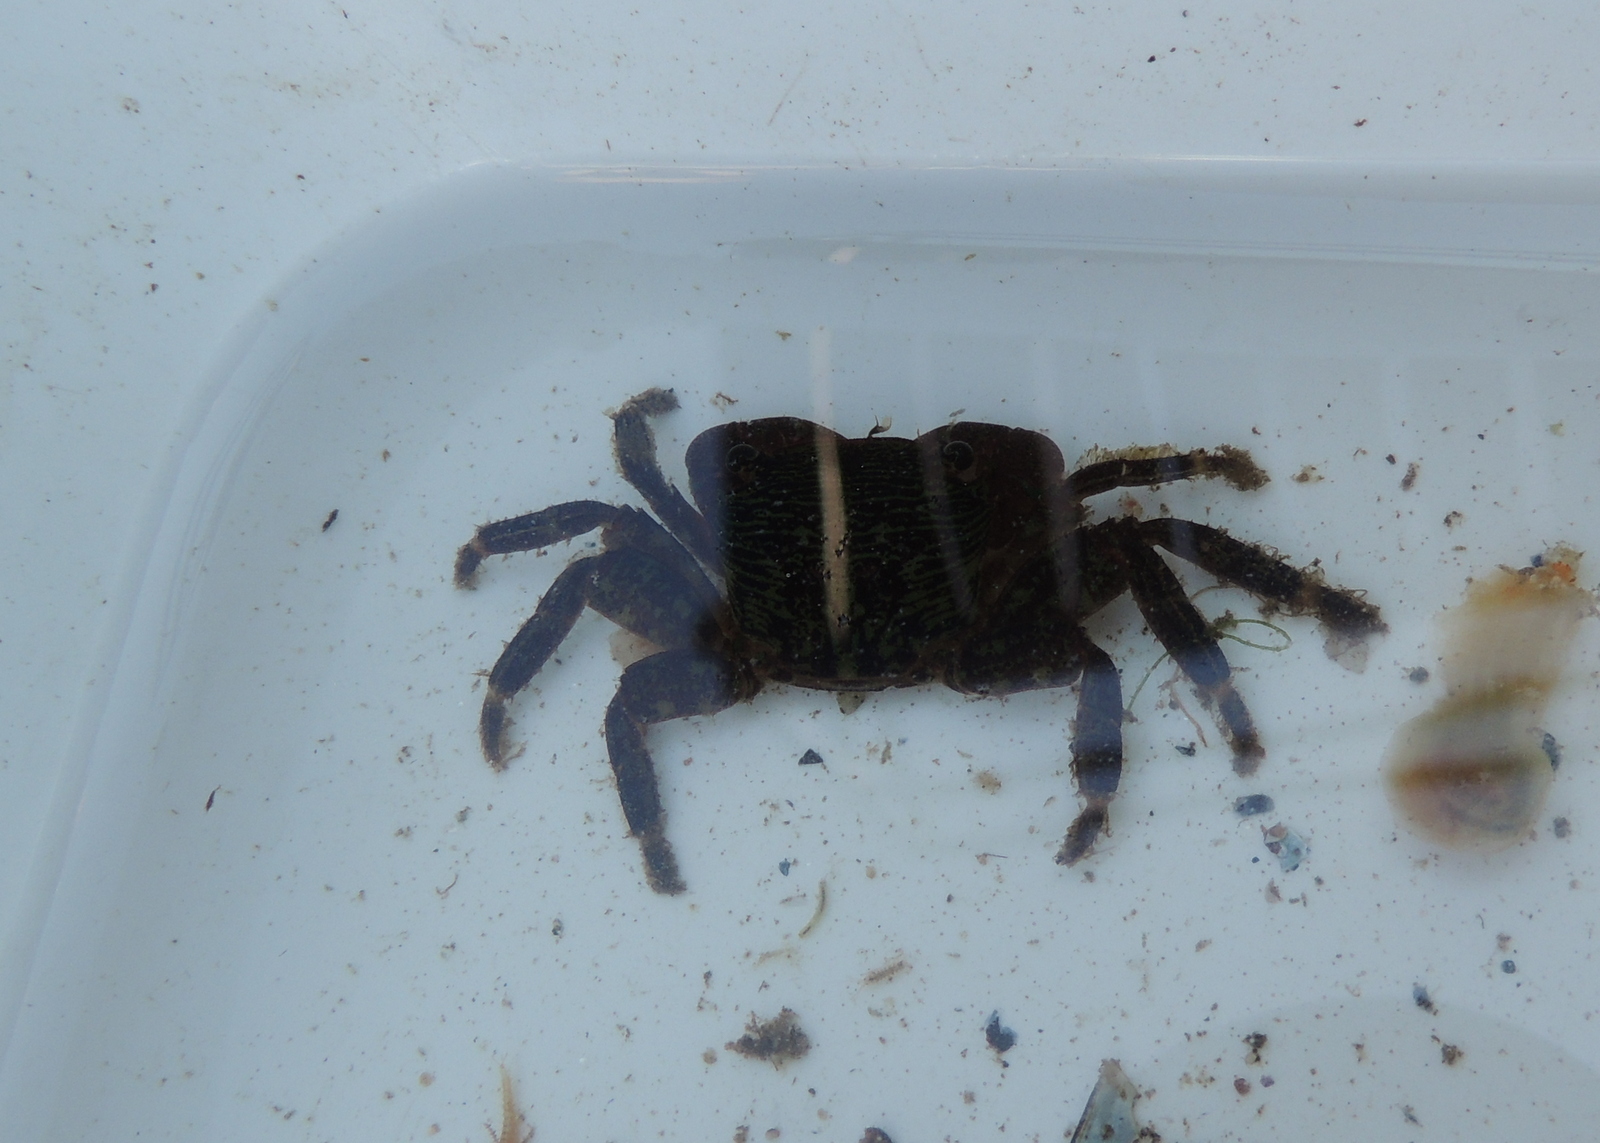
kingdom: Animalia
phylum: Arthropoda
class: Malacostraca
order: Decapoda
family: Grapsidae
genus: Pachygrapsus
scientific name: Pachygrapsus crassipes
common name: Striped shore crab
